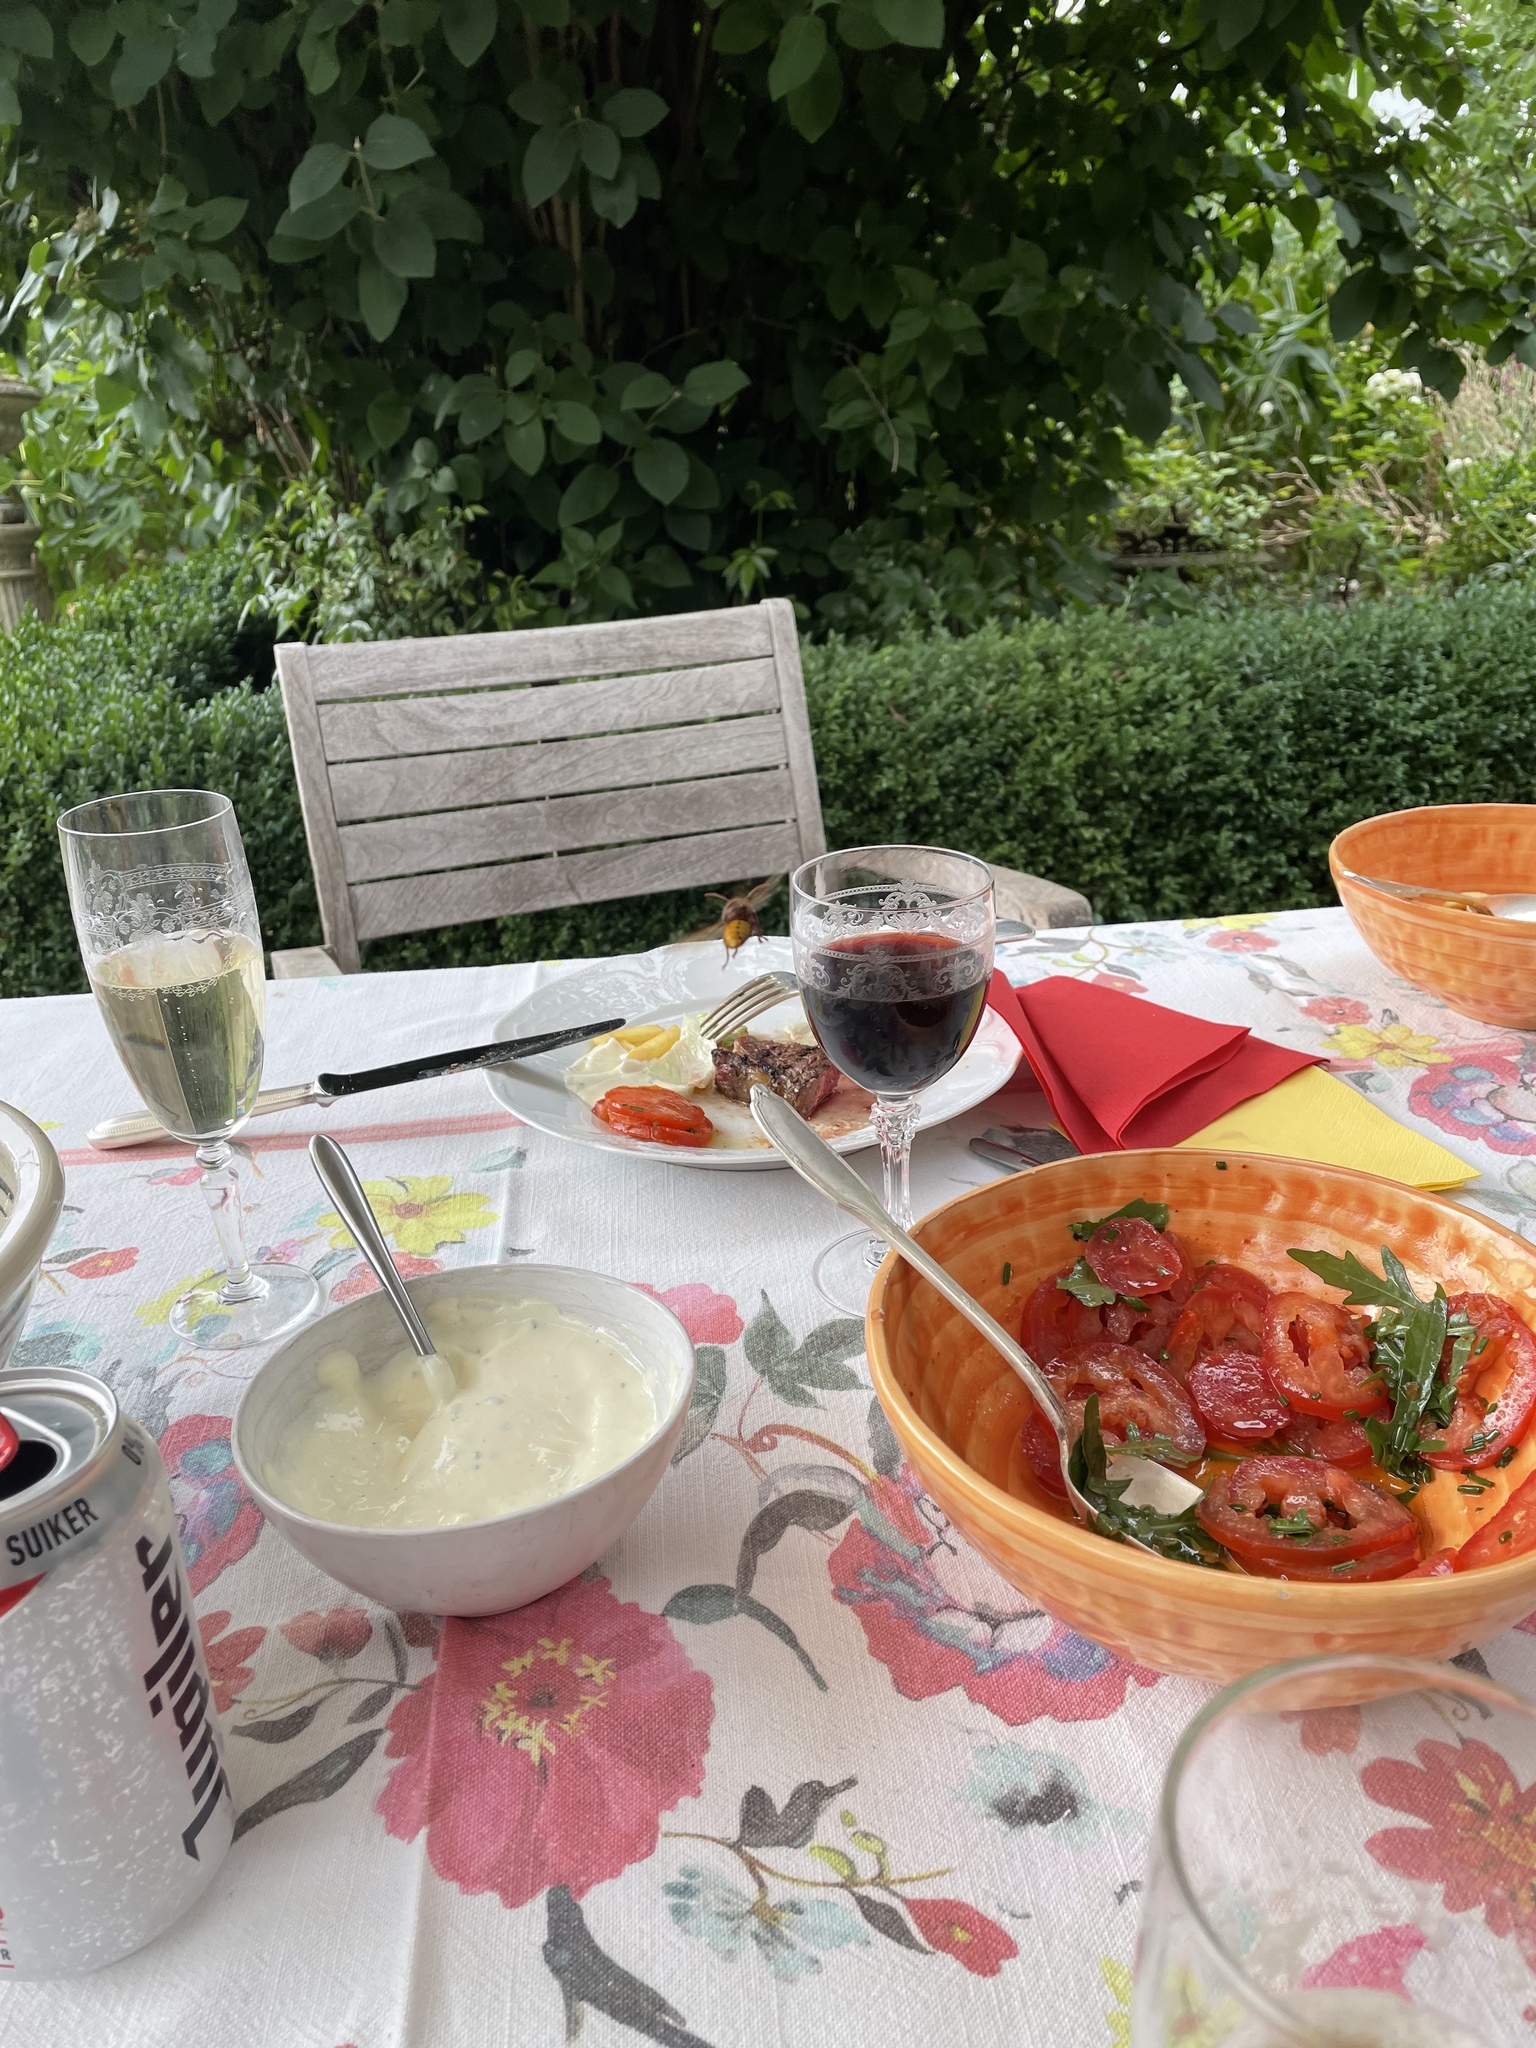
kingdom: Animalia
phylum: Arthropoda
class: Insecta
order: Hymenoptera
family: Vespidae
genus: Vespa
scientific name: Vespa crabro
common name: Hornet
